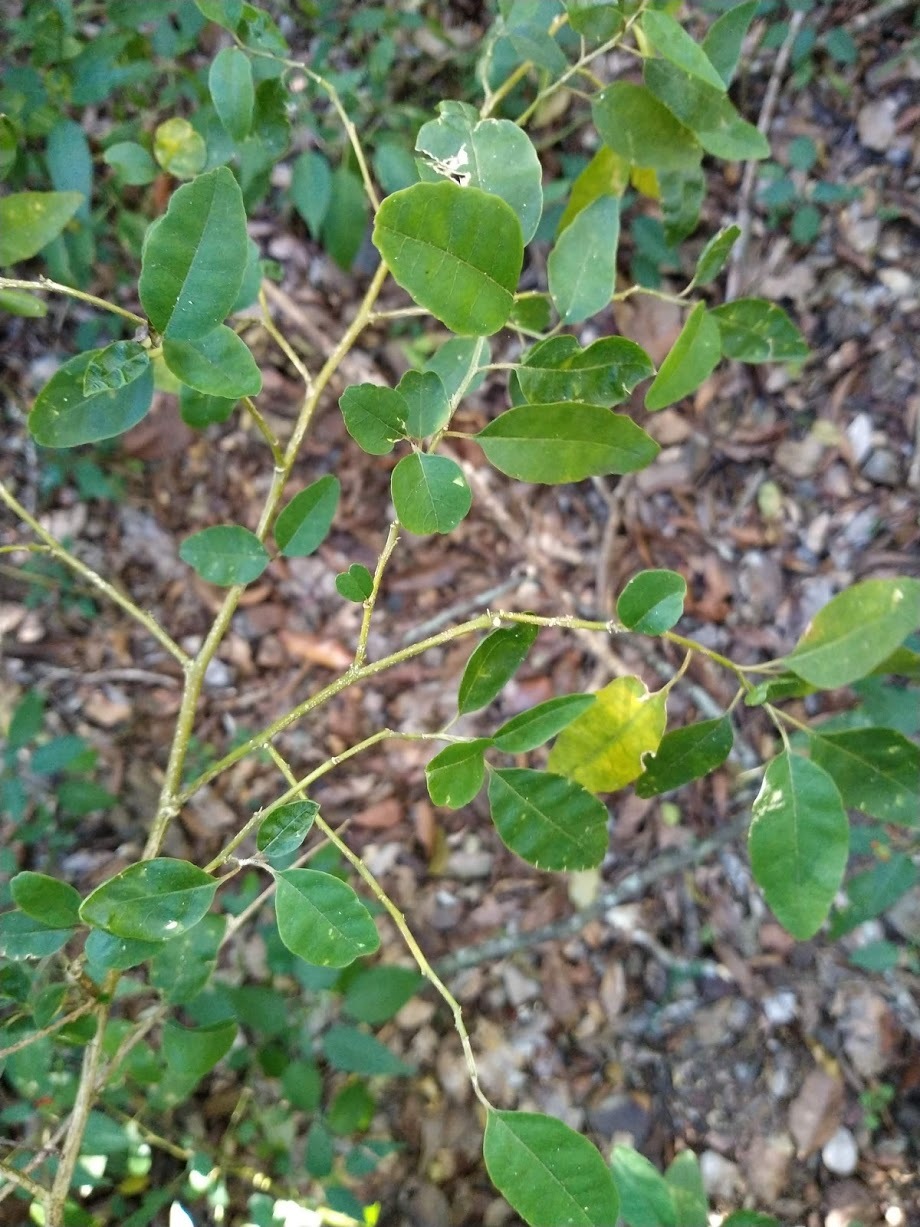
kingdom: Plantae
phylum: Tracheophyta
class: Magnoliopsida
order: Caryophyllales
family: Phytolaccaceae
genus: Monococcus
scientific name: Monococcus echinophorus
